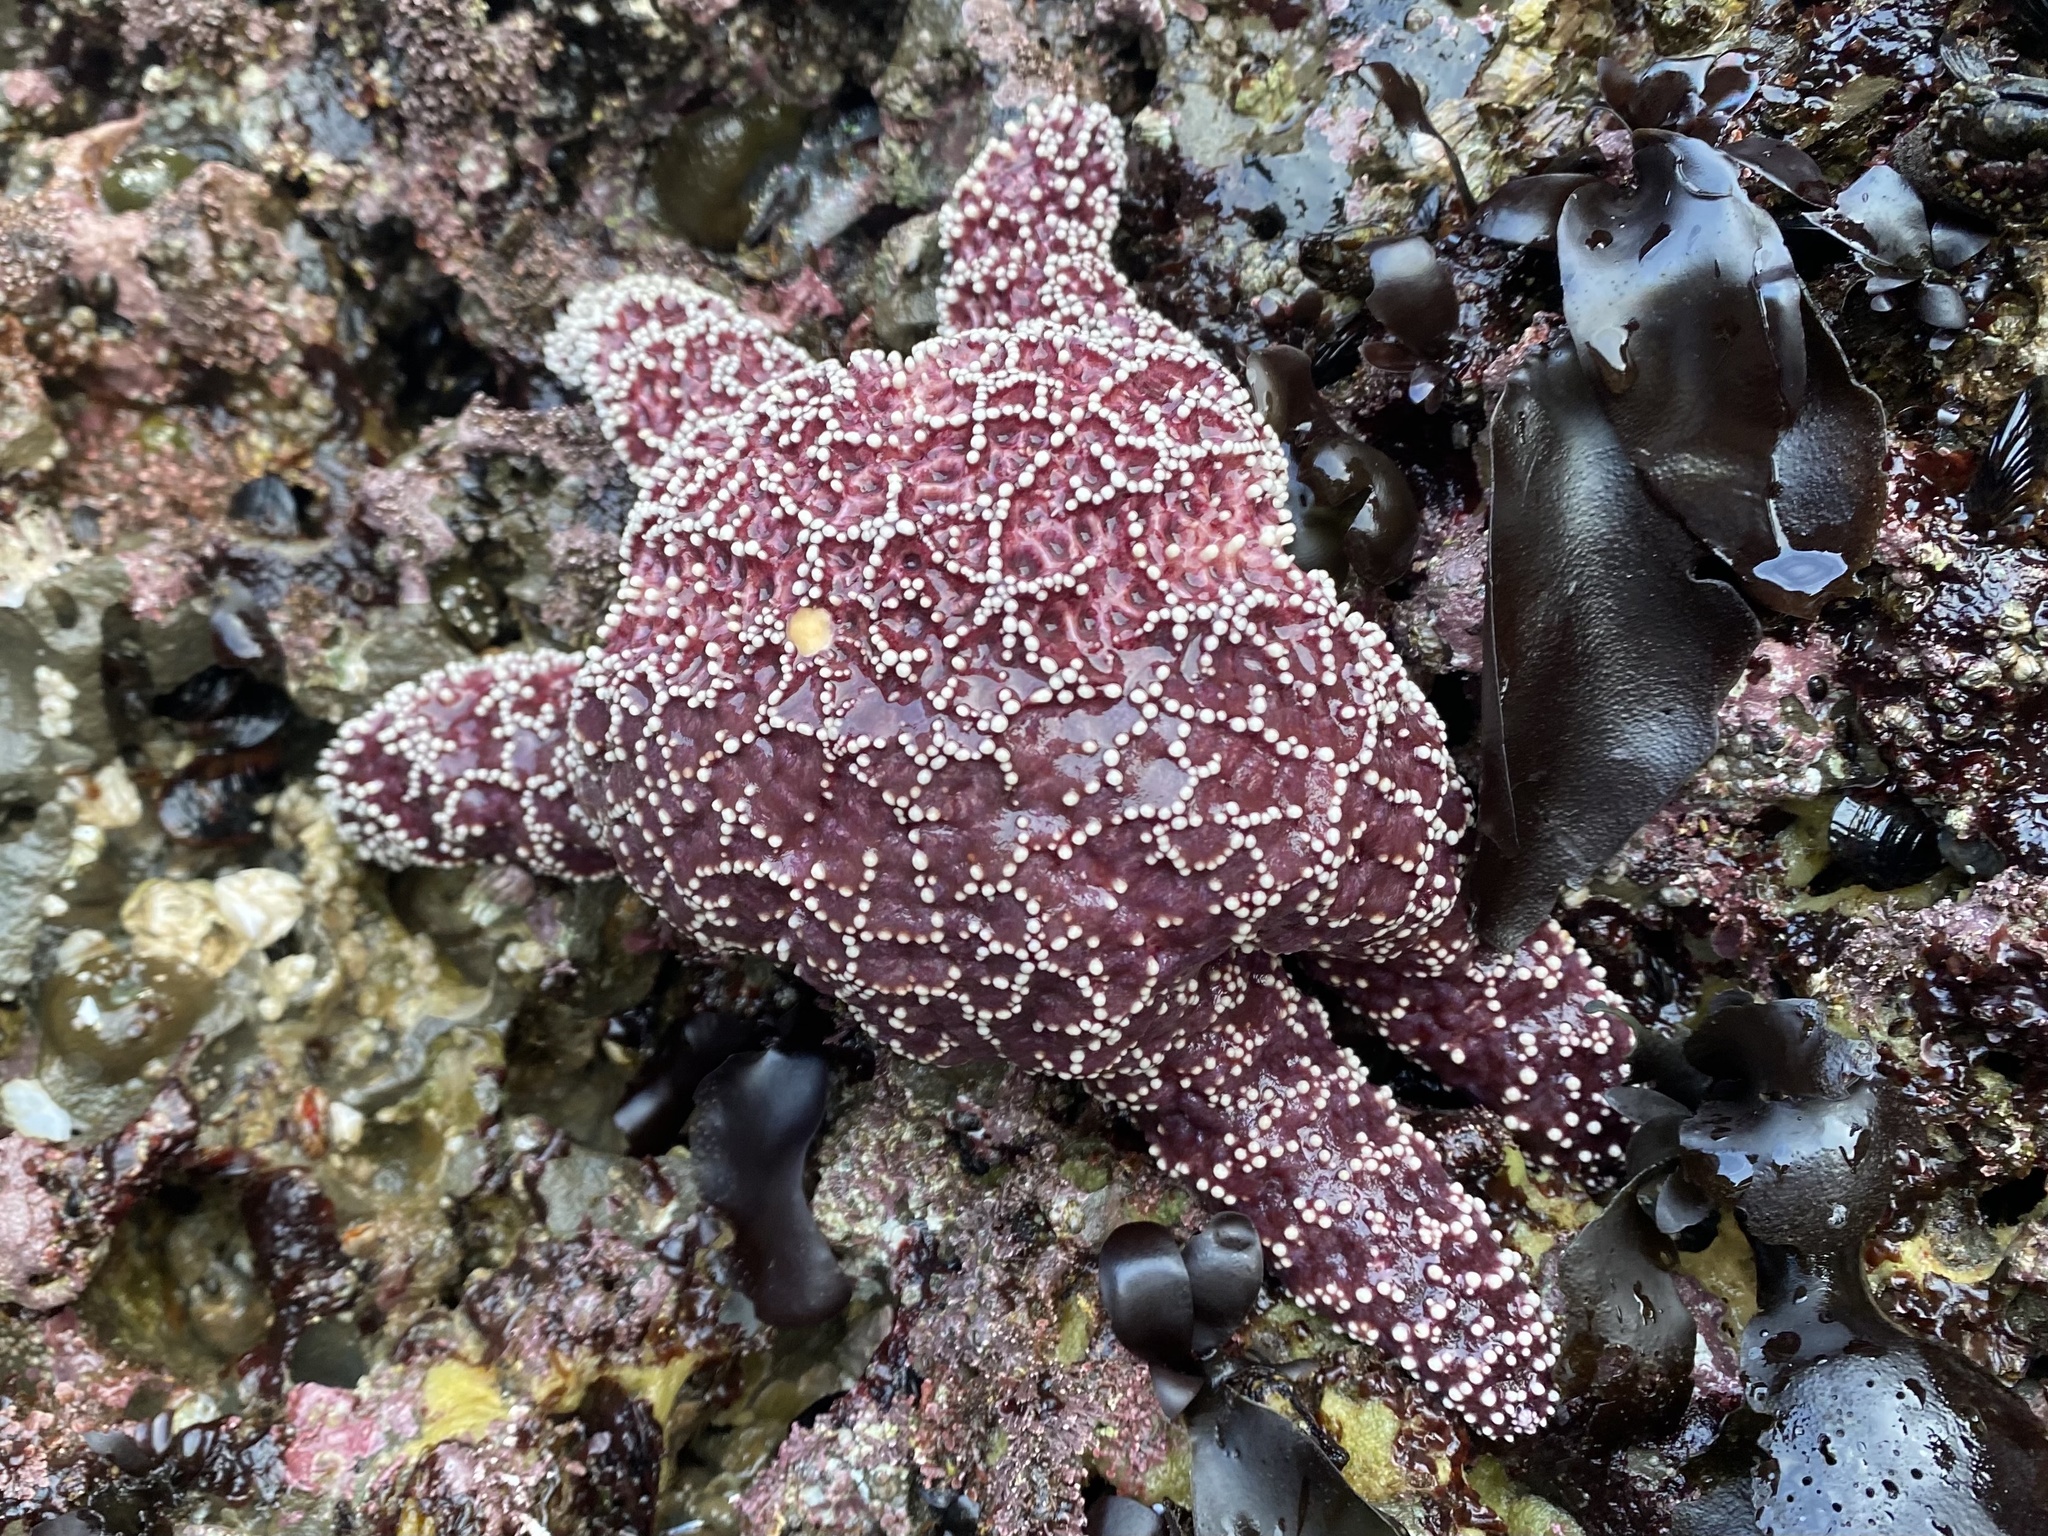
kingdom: Animalia
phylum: Echinodermata
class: Asteroidea
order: Forcipulatida
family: Asteriidae
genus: Pisaster
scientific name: Pisaster ochraceus
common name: Ochre stars
